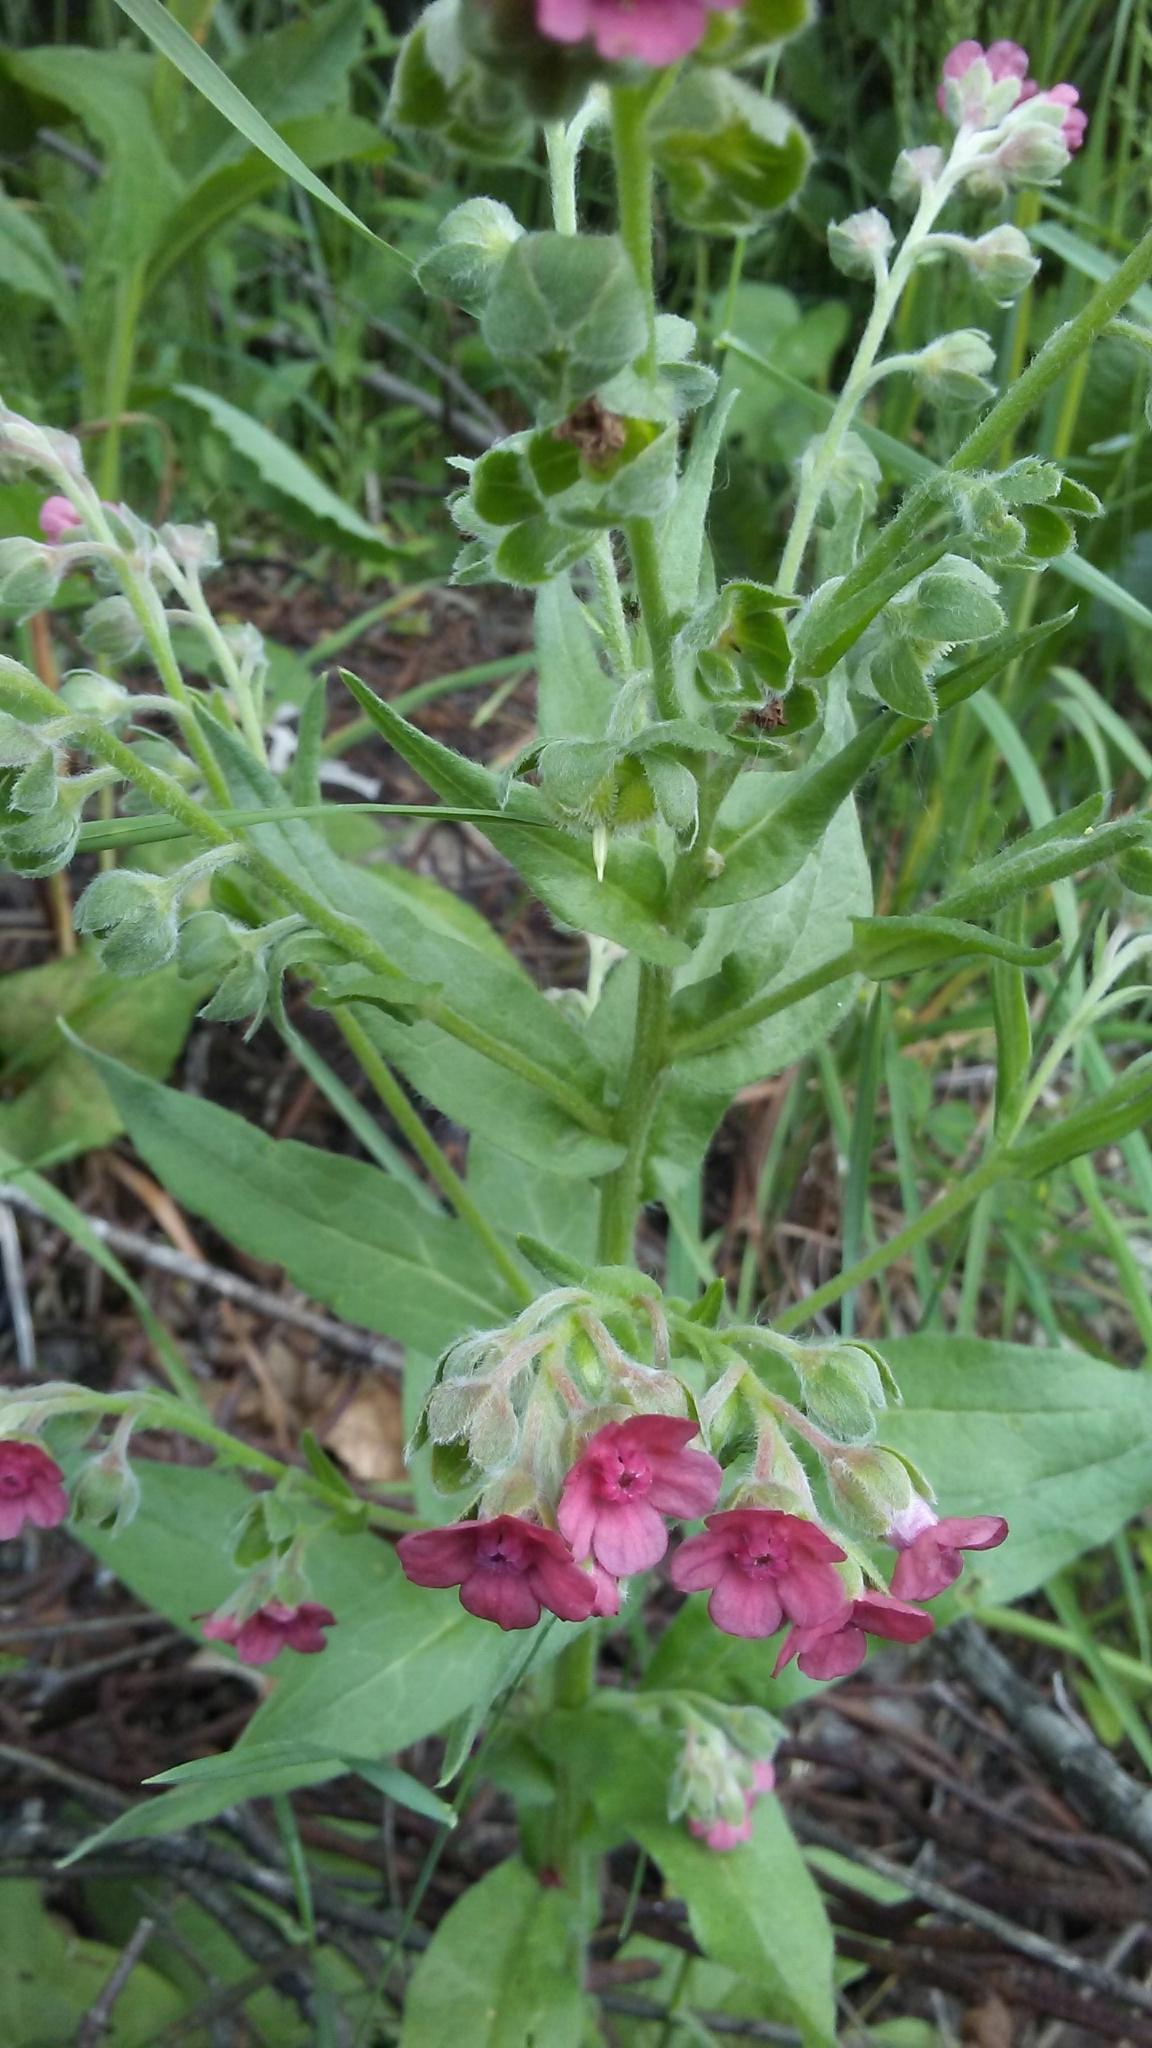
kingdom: Plantae
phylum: Tracheophyta
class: Magnoliopsida
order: Boraginales
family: Boraginaceae
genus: Cynoglossum
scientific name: Cynoglossum officinale
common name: Hound's-tongue
